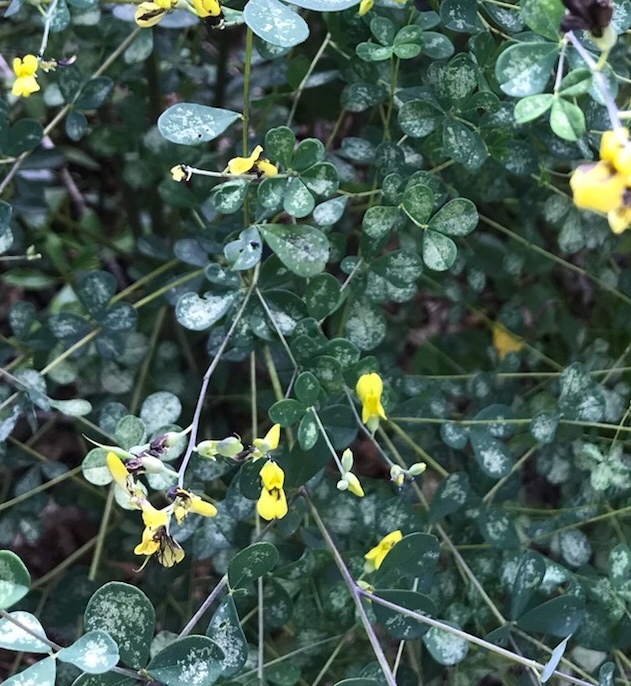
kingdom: Plantae
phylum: Tracheophyta
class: Magnoliopsida
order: Fabales
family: Fabaceae
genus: Baptisia
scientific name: Baptisia tinctoria
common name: Wild indigo
